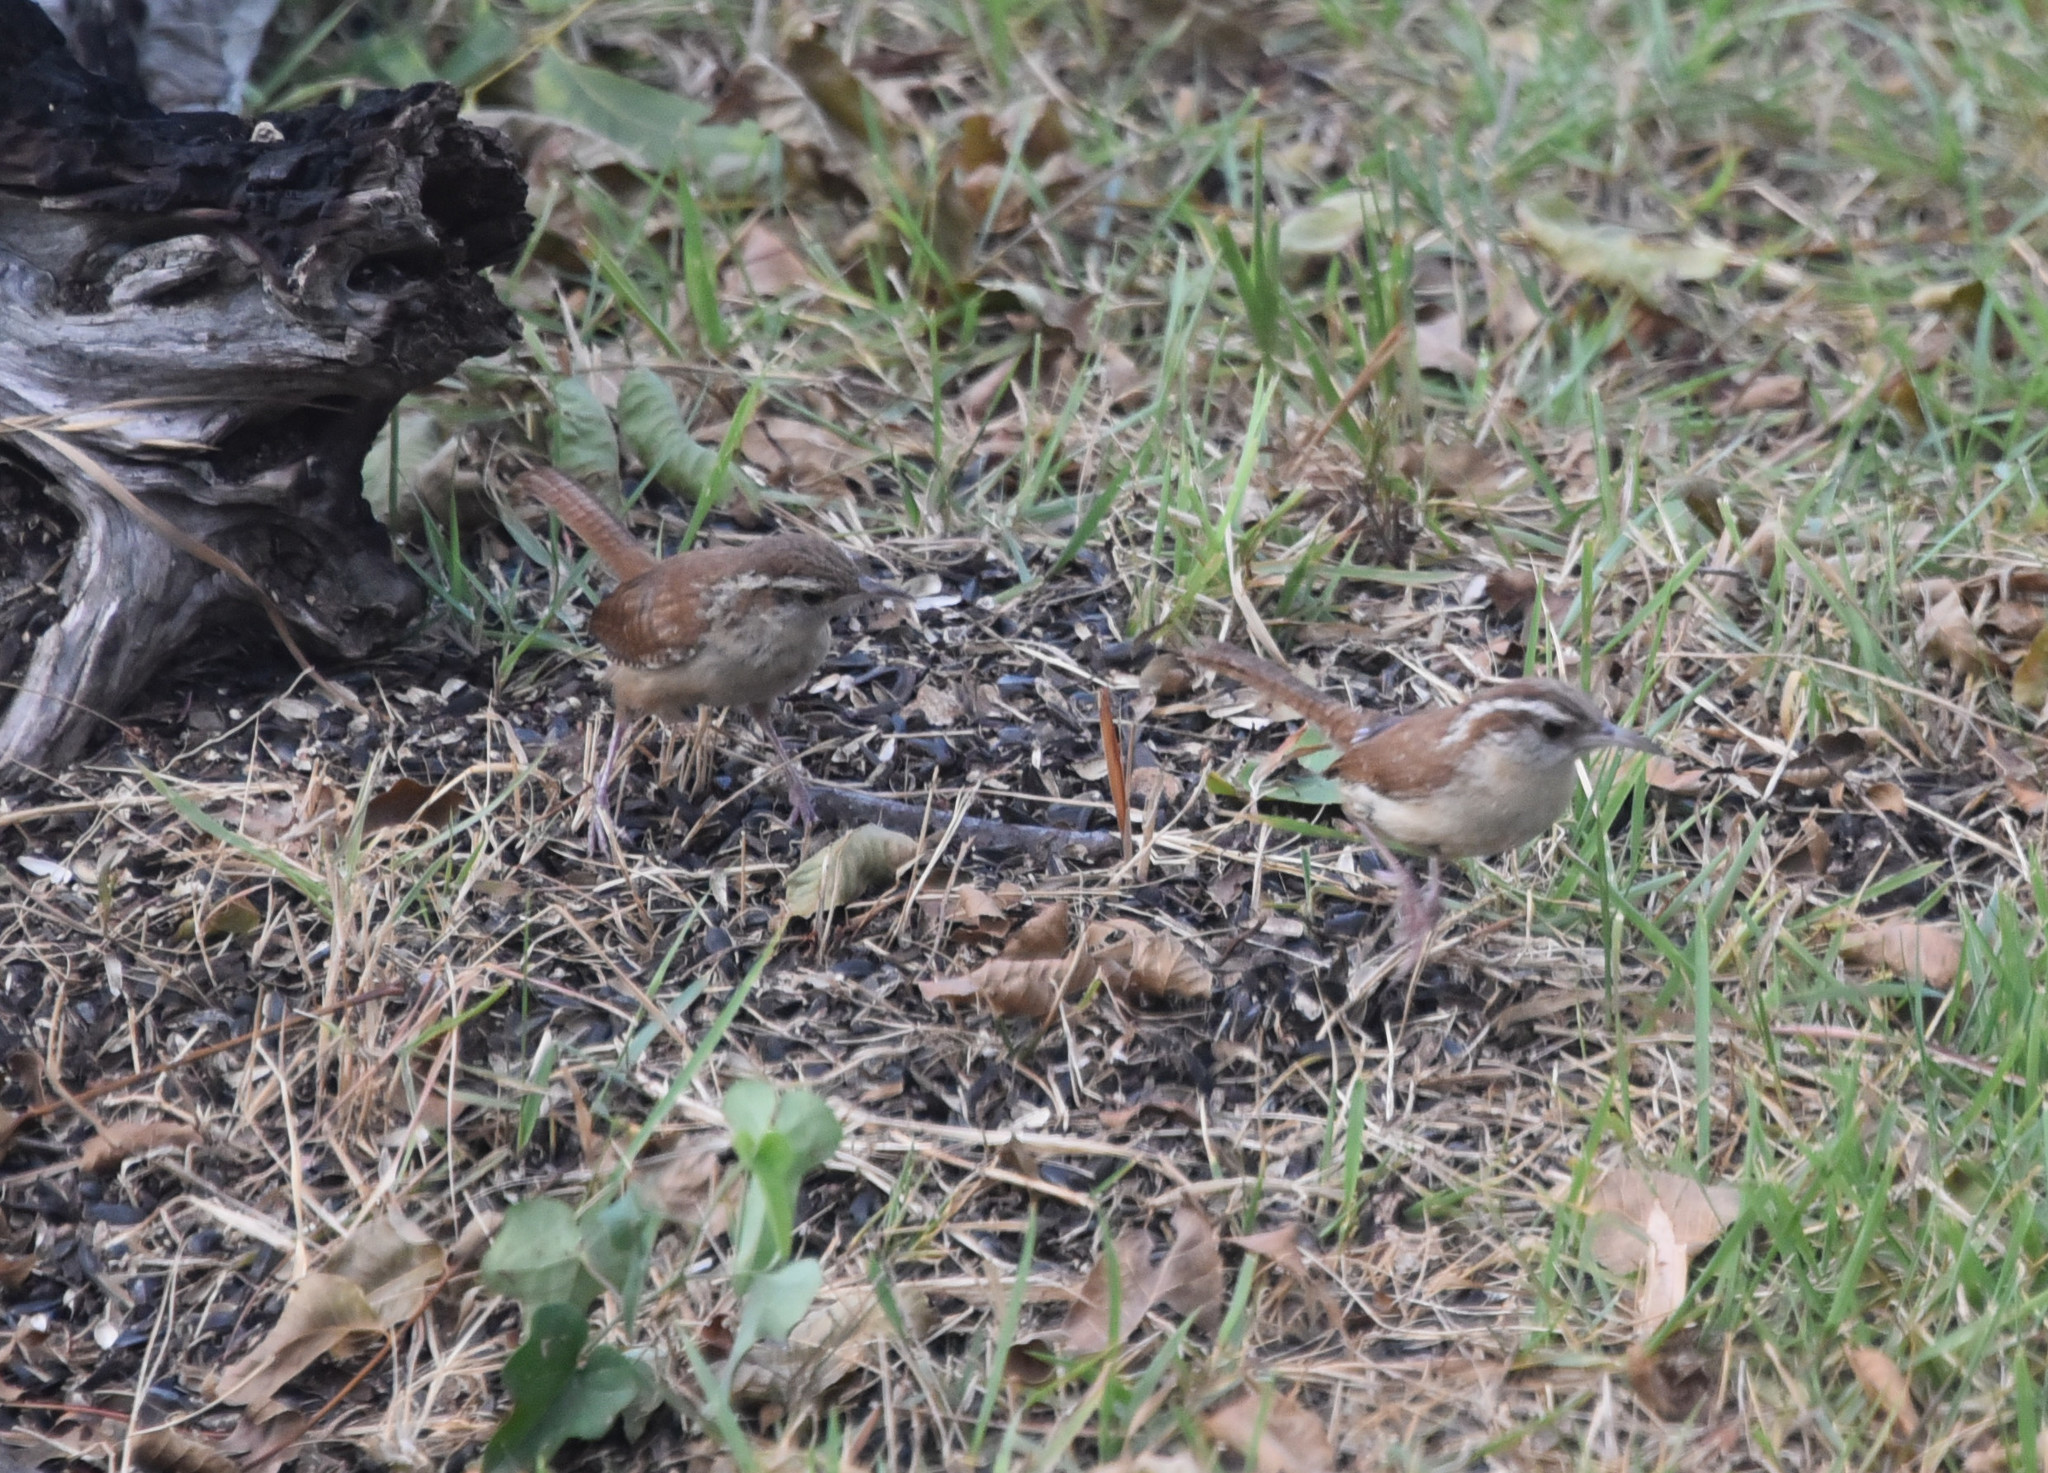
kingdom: Animalia
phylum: Chordata
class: Aves
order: Passeriformes
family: Troglodytidae
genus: Thryothorus
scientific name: Thryothorus ludovicianus
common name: Carolina wren
